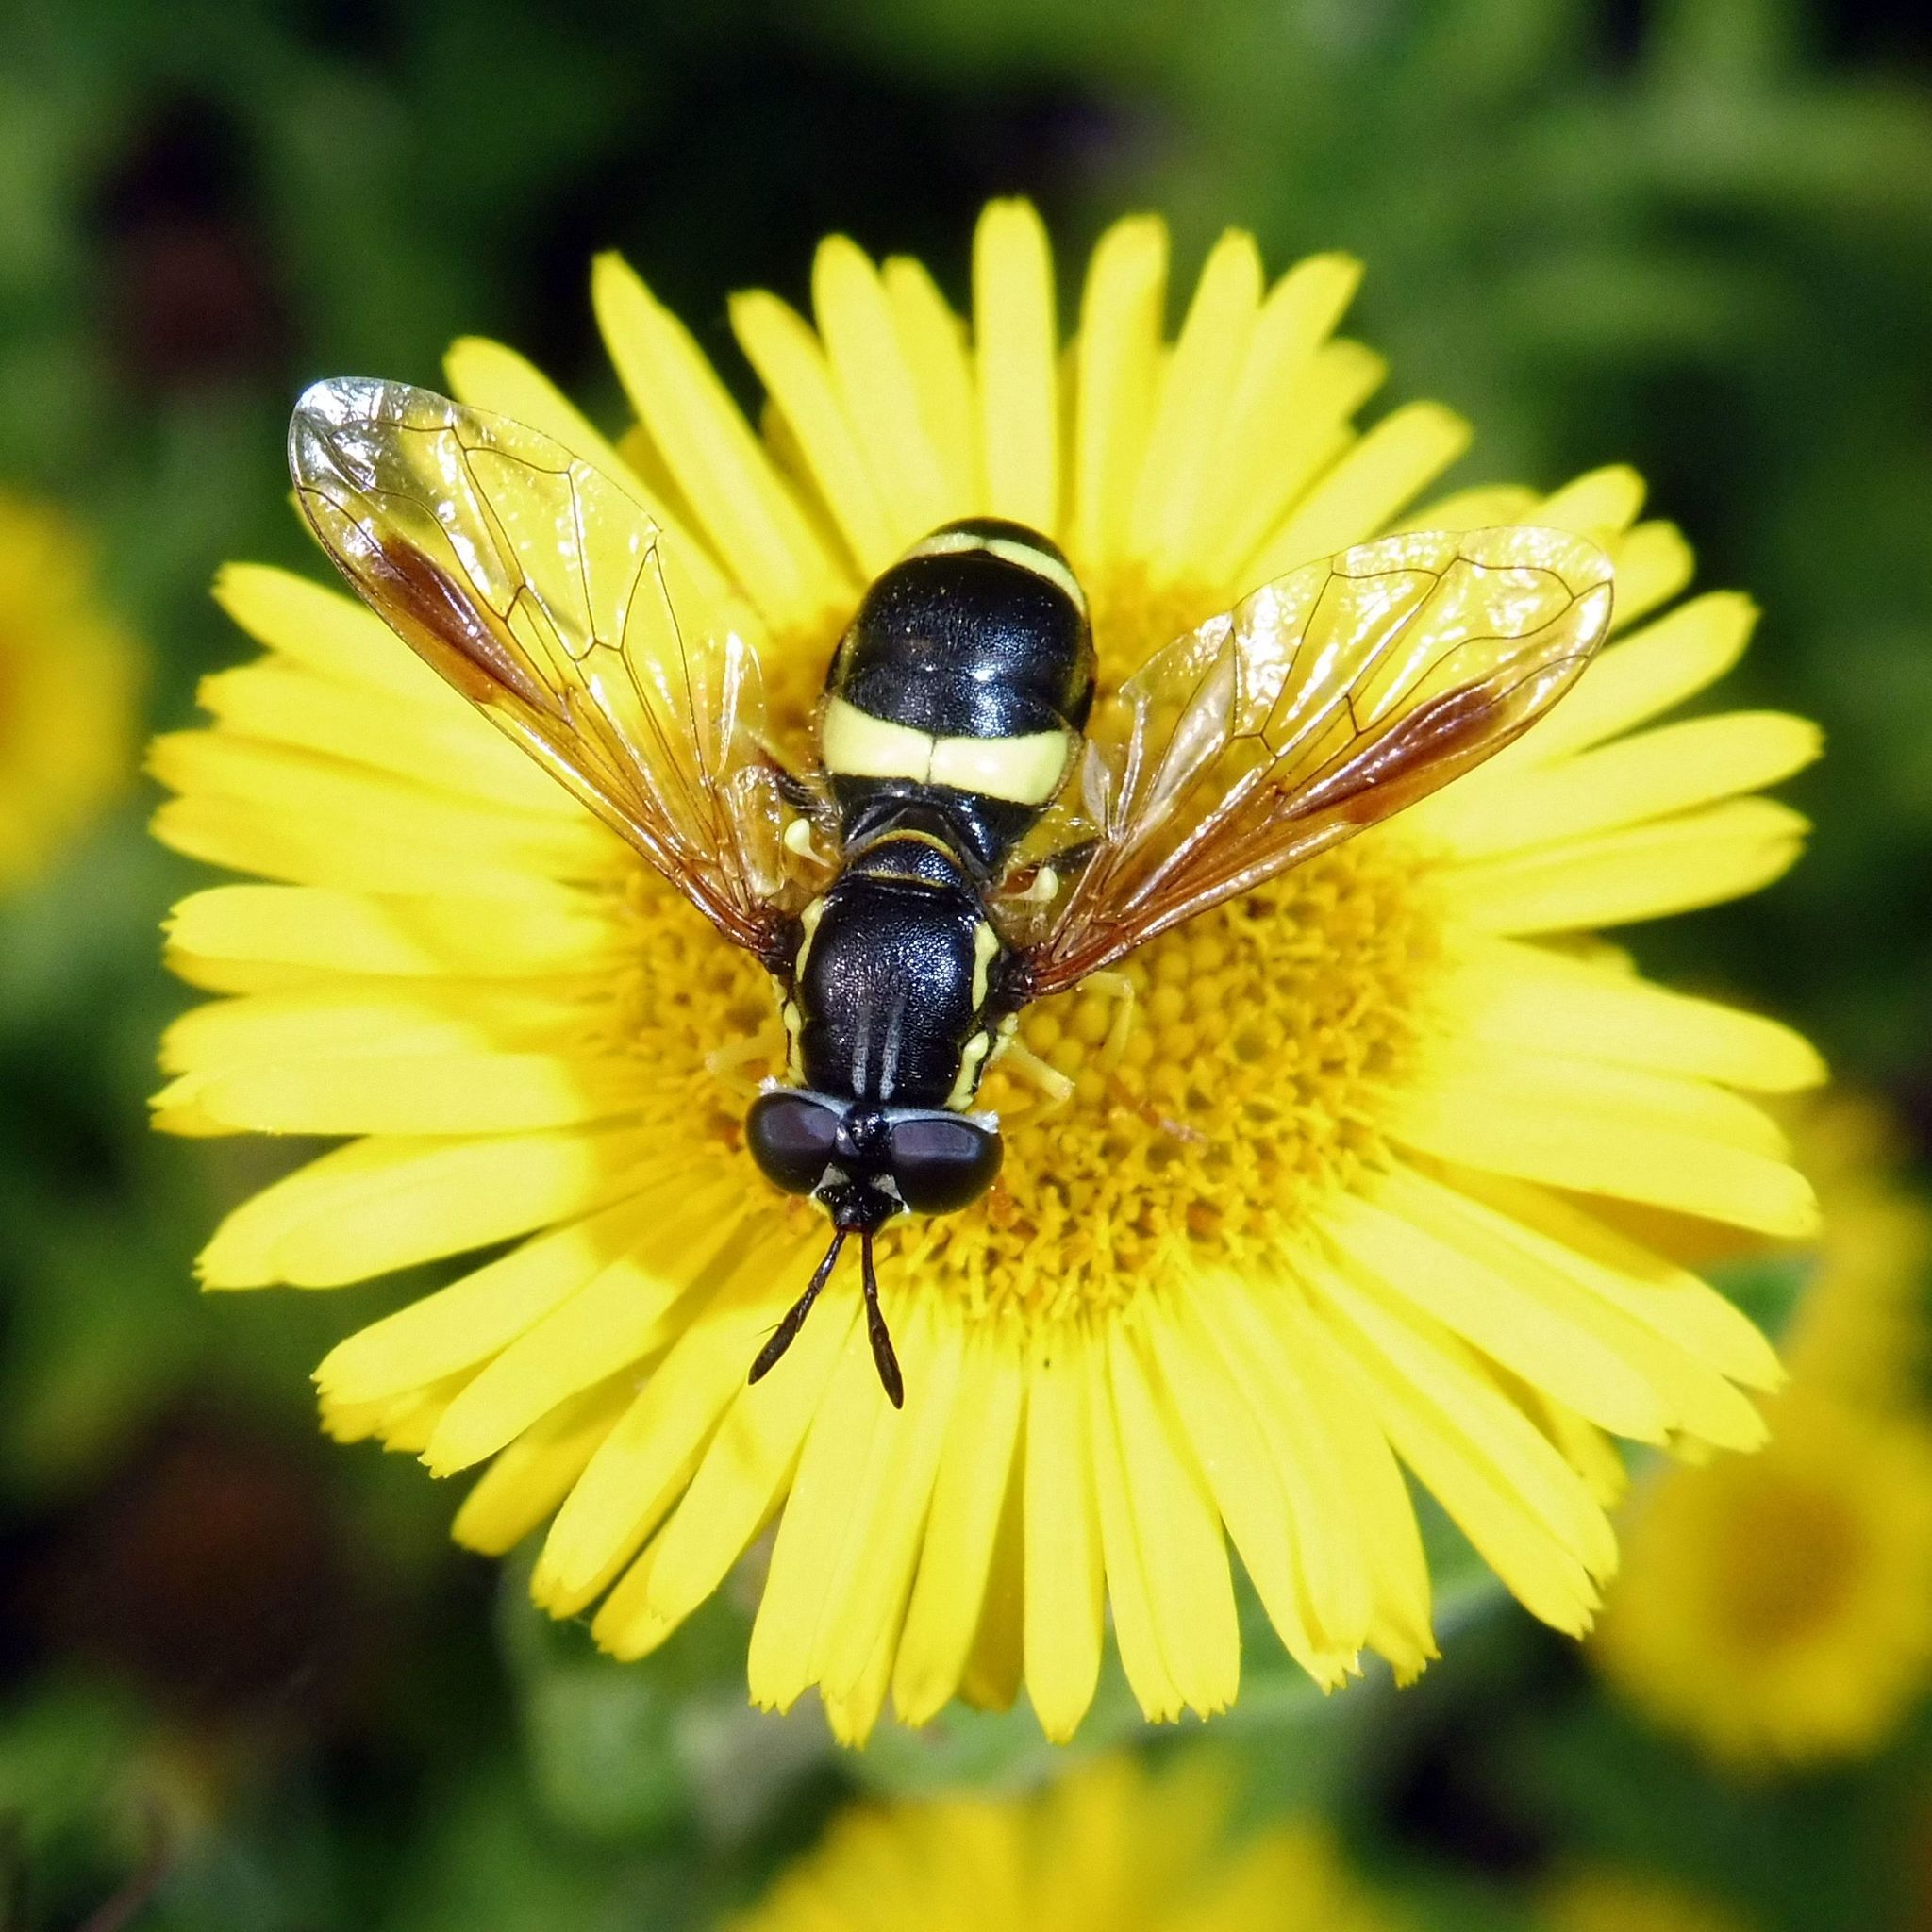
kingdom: Animalia
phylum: Arthropoda
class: Insecta
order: Diptera
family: Syrphidae
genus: Chrysotoxum
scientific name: Chrysotoxum bicincta
